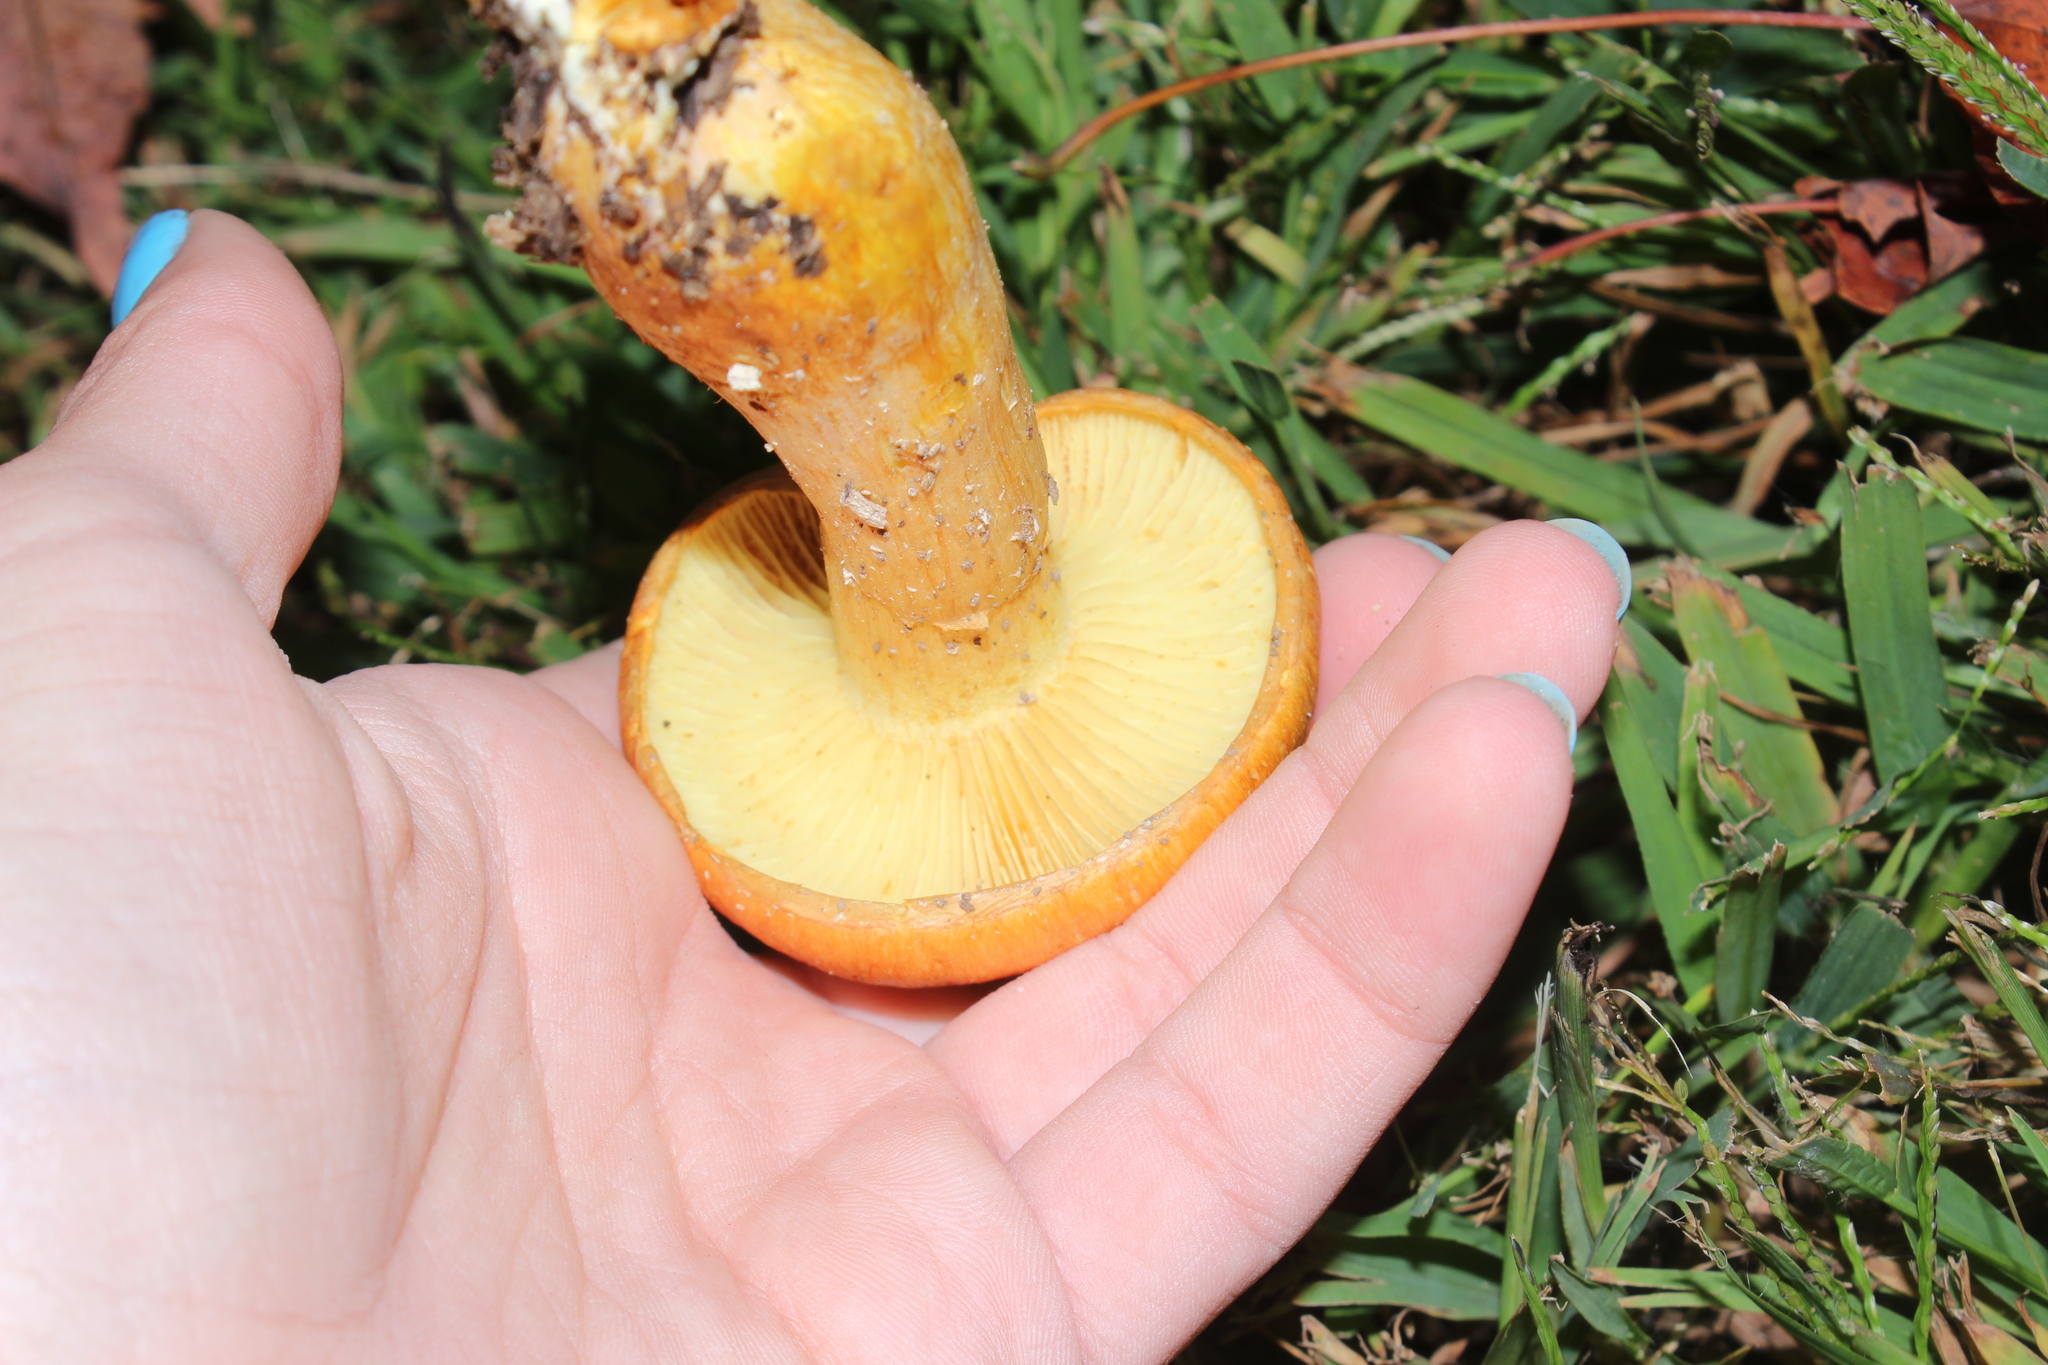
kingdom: Fungi
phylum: Basidiomycota
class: Agaricomycetes
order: Agaricales
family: Hymenogastraceae
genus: Gymnopilus
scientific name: Gymnopilus subspectabilis
